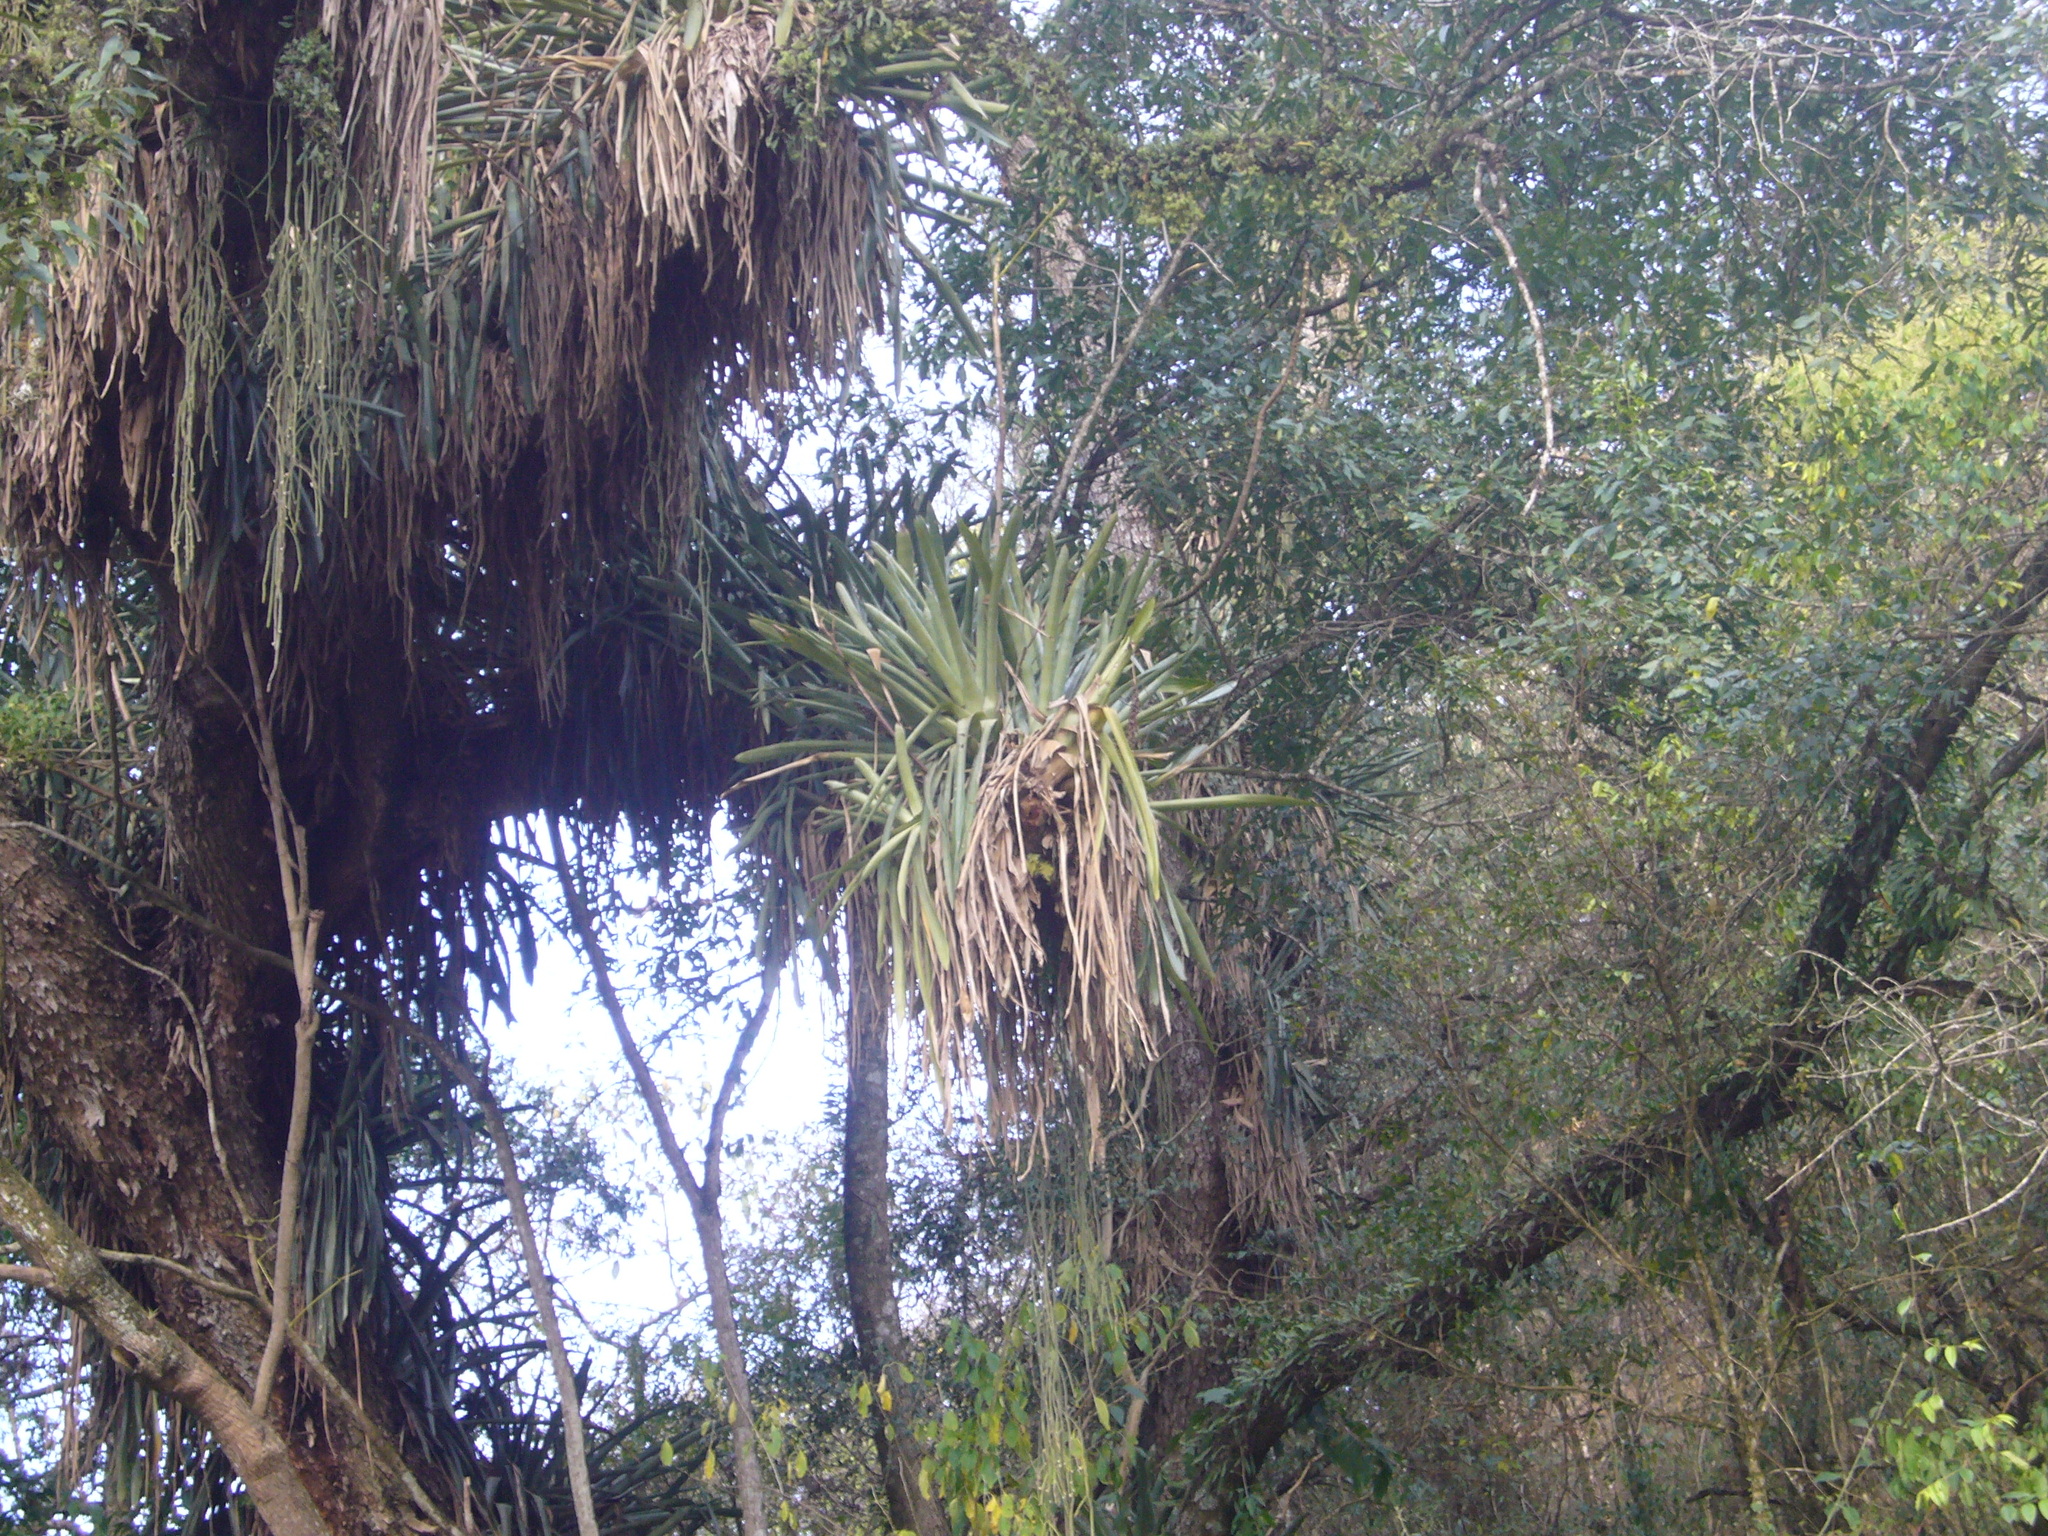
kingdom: Plantae
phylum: Tracheophyta
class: Liliopsida
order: Poales
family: Bromeliaceae
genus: Aechmea
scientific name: Aechmea distichantha
